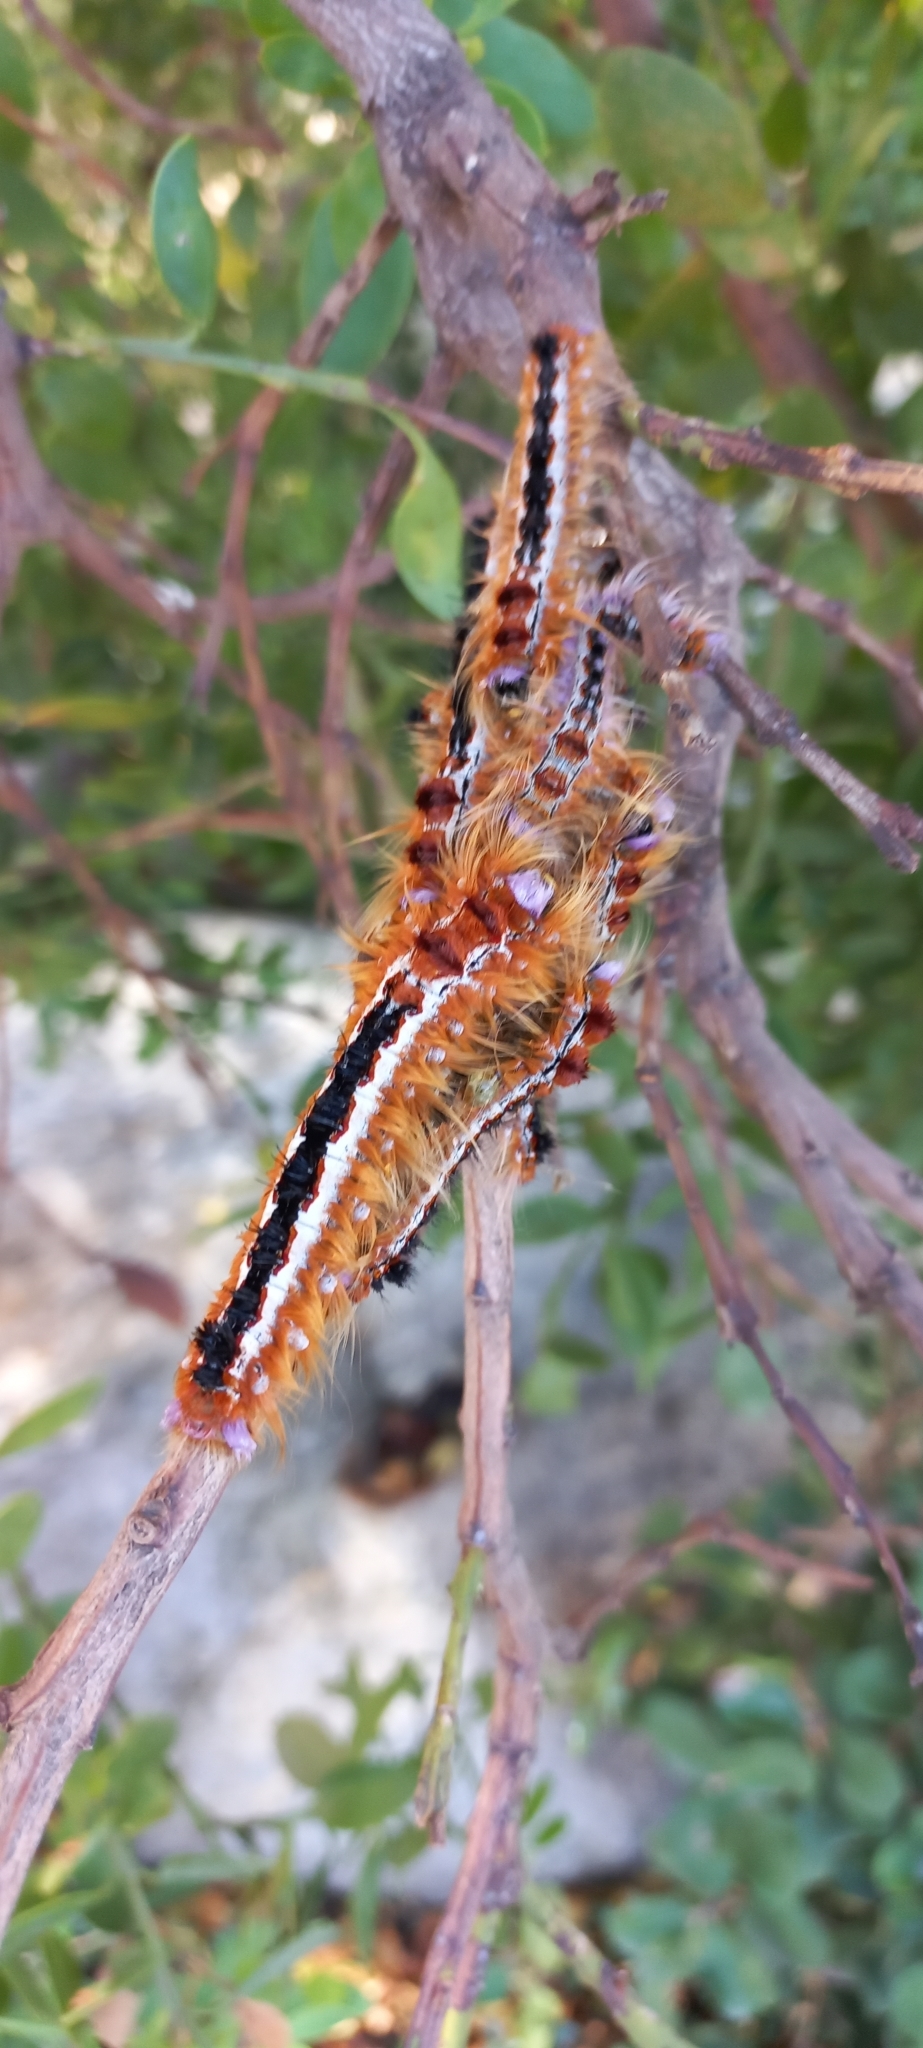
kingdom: Animalia
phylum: Arthropoda
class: Insecta
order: Lepidoptera
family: Lasiocampidae
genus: Eutricha
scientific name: Eutricha capensis
